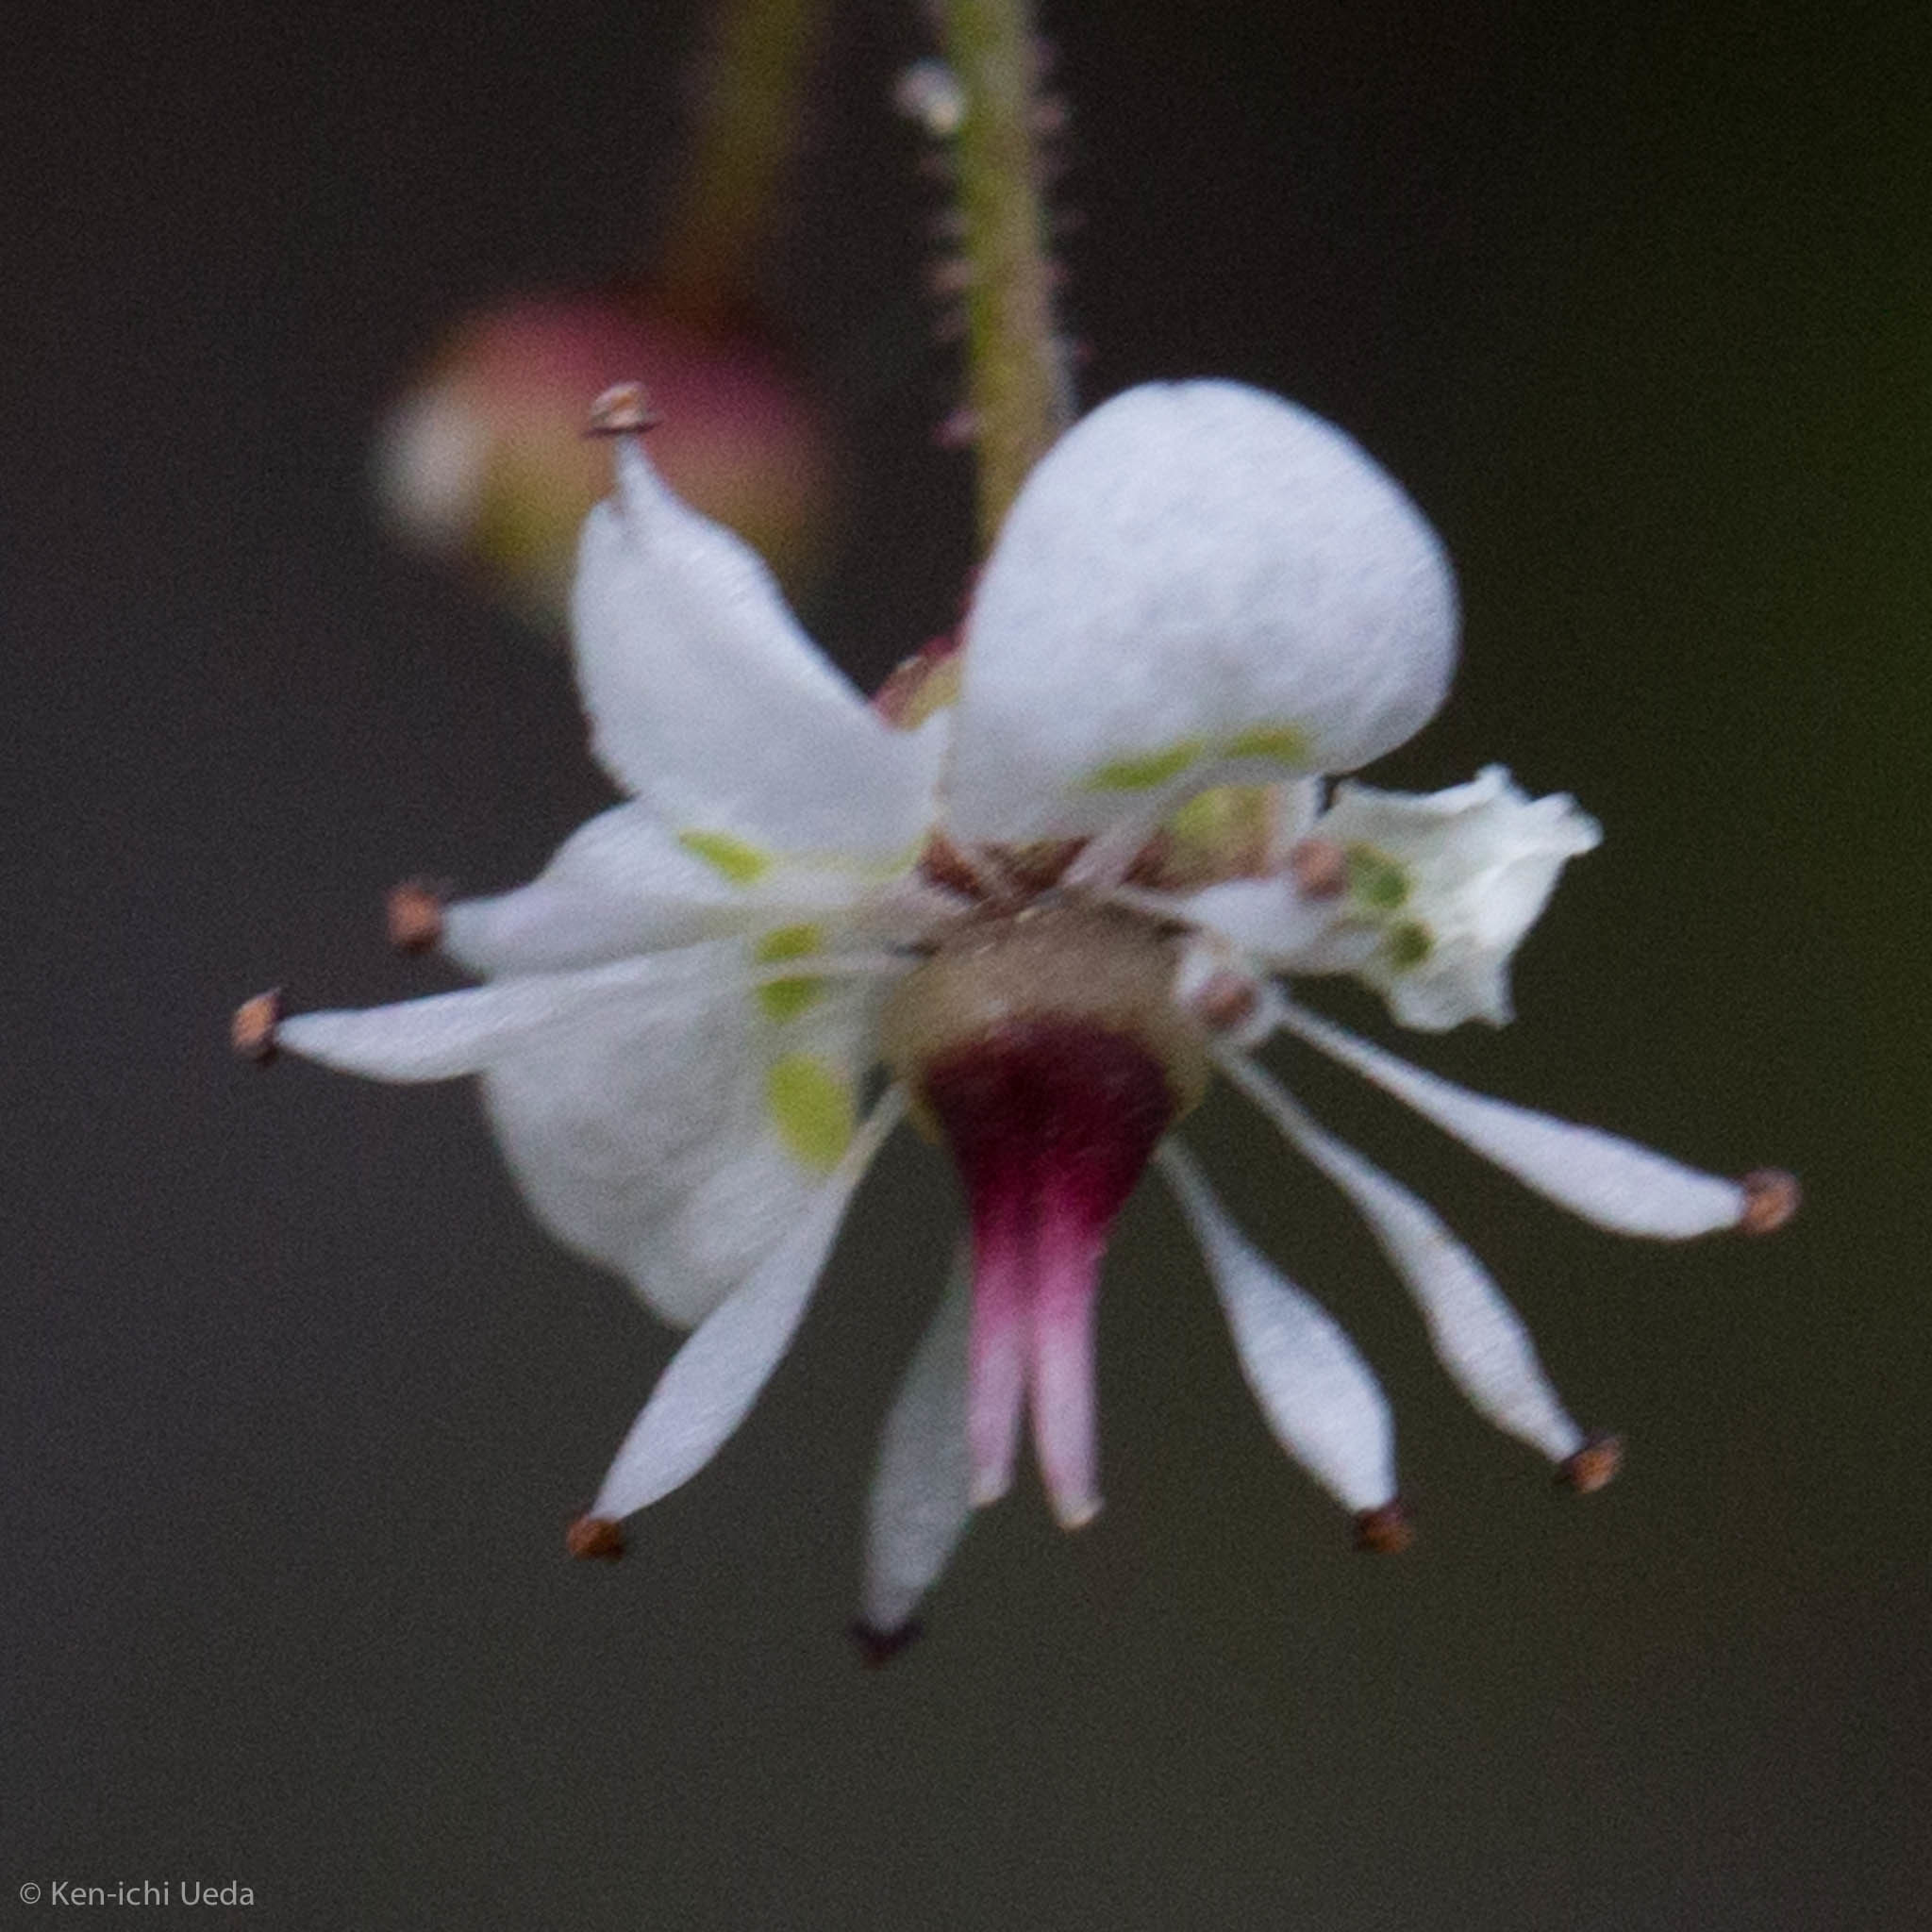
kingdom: Plantae
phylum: Tracheophyta
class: Magnoliopsida
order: Saxifragales
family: Saxifragaceae
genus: Micranthes
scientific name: Micranthes odontoloma
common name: Brook saxifrage
